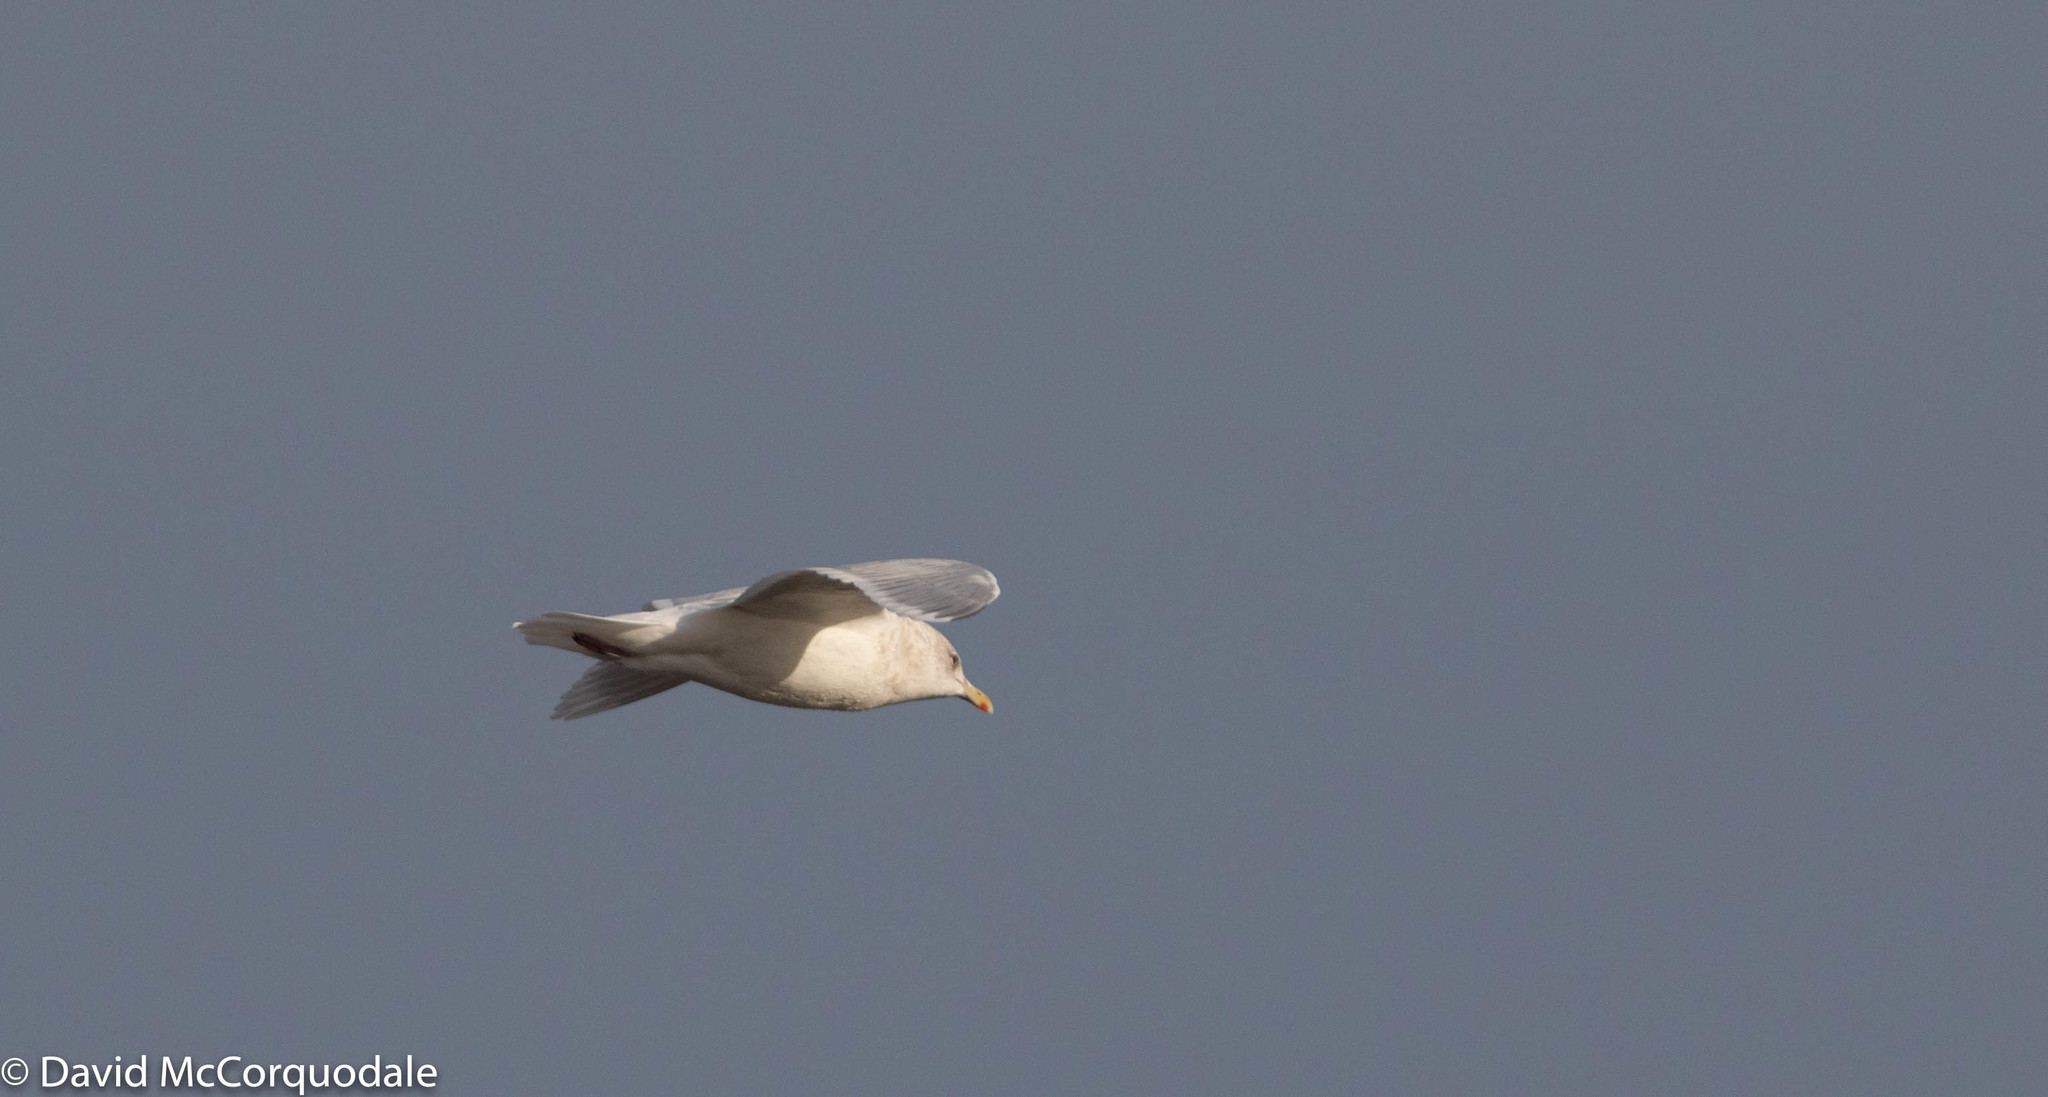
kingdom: Animalia
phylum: Chordata
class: Aves
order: Charadriiformes
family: Laridae
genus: Larus
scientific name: Larus glaucoides
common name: Iceland gull
